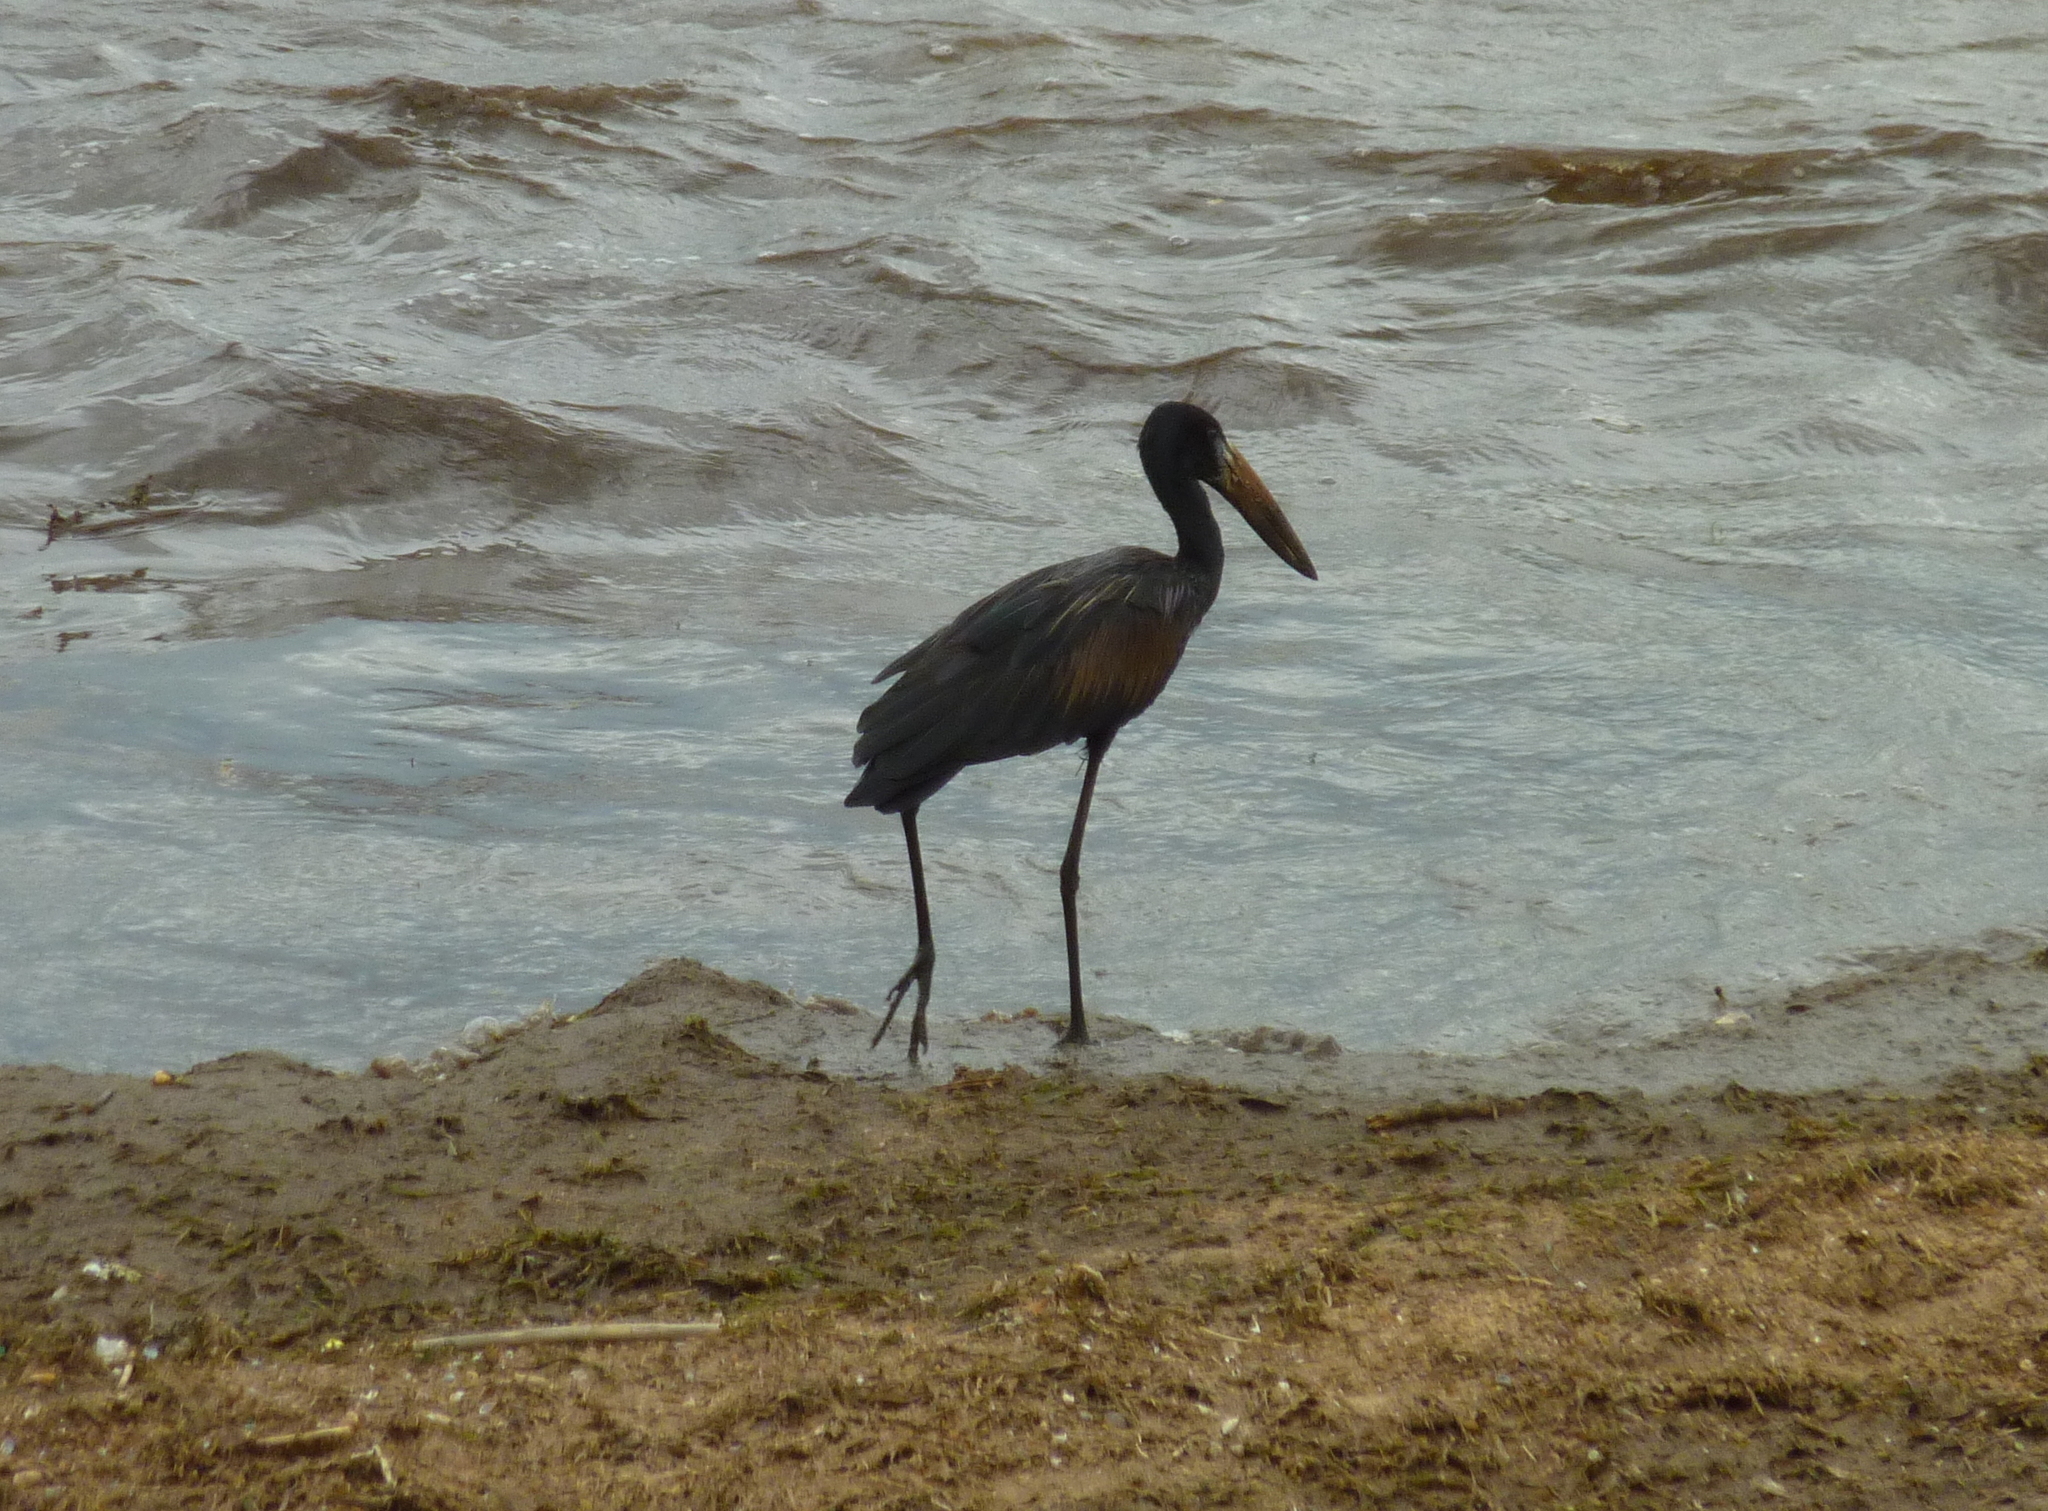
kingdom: Animalia
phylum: Chordata
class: Aves
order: Ciconiiformes
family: Ciconiidae
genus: Anastomus
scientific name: Anastomus lamelligerus
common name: African openbill
